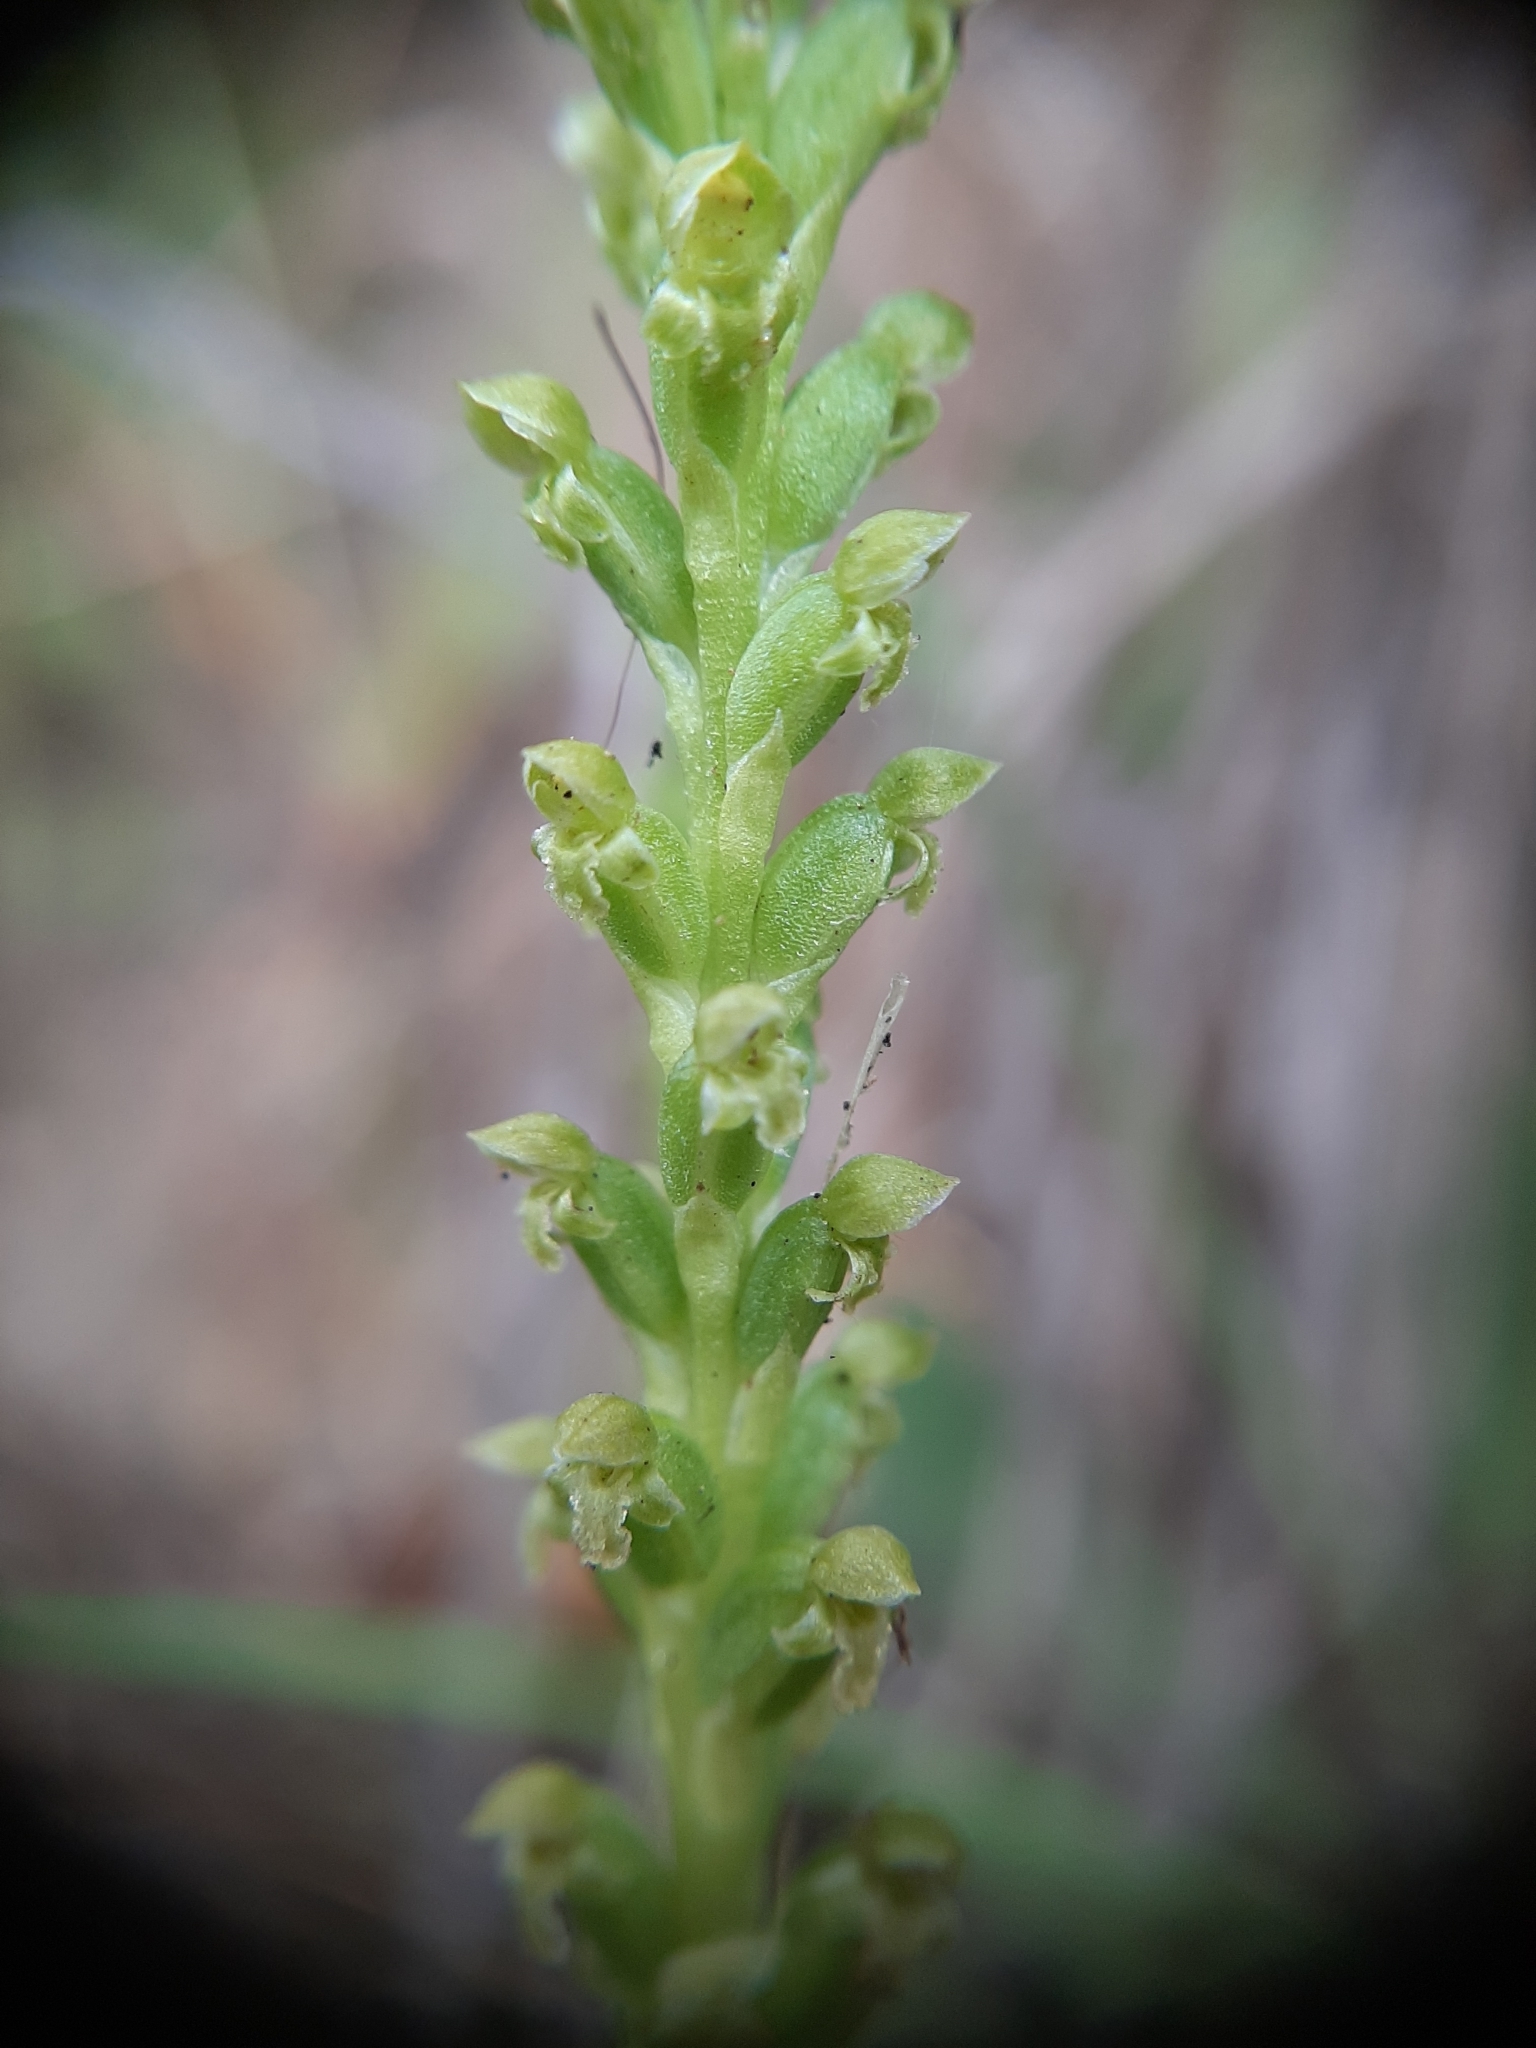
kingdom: Plantae
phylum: Tracheophyta
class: Liliopsida
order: Asparagales
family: Orchidaceae
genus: Microtis
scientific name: Microtis unifolia
